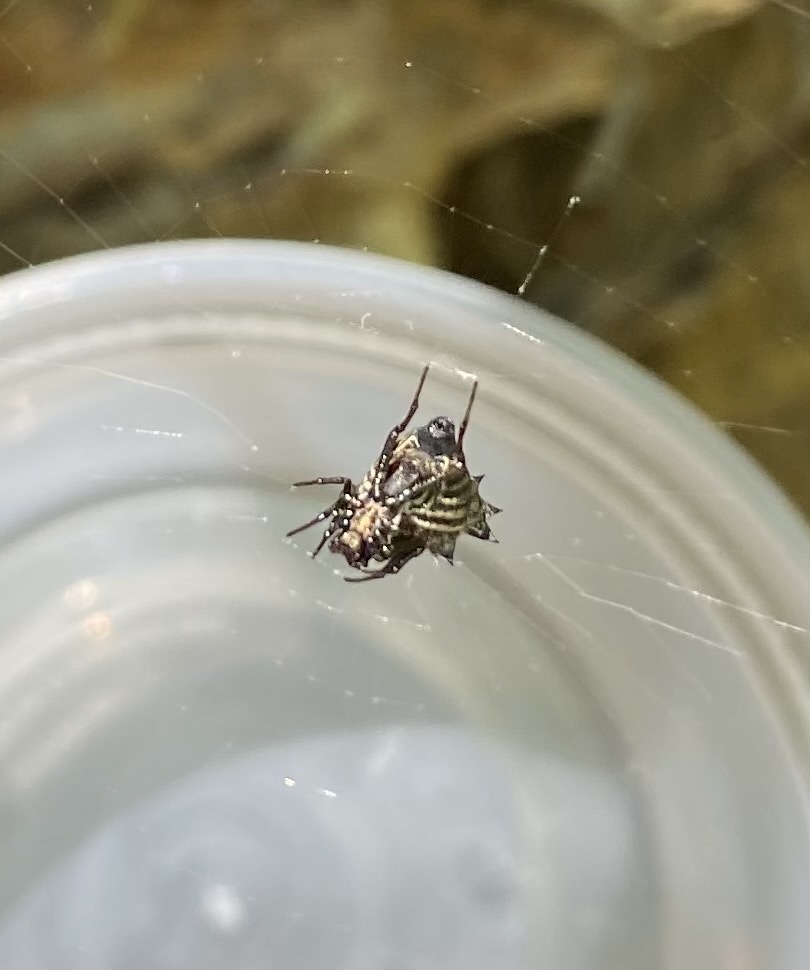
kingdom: Animalia
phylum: Arthropoda
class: Arachnida
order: Araneae
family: Araneidae
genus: Micrathena
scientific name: Micrathena gracilis
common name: Orb weavers
